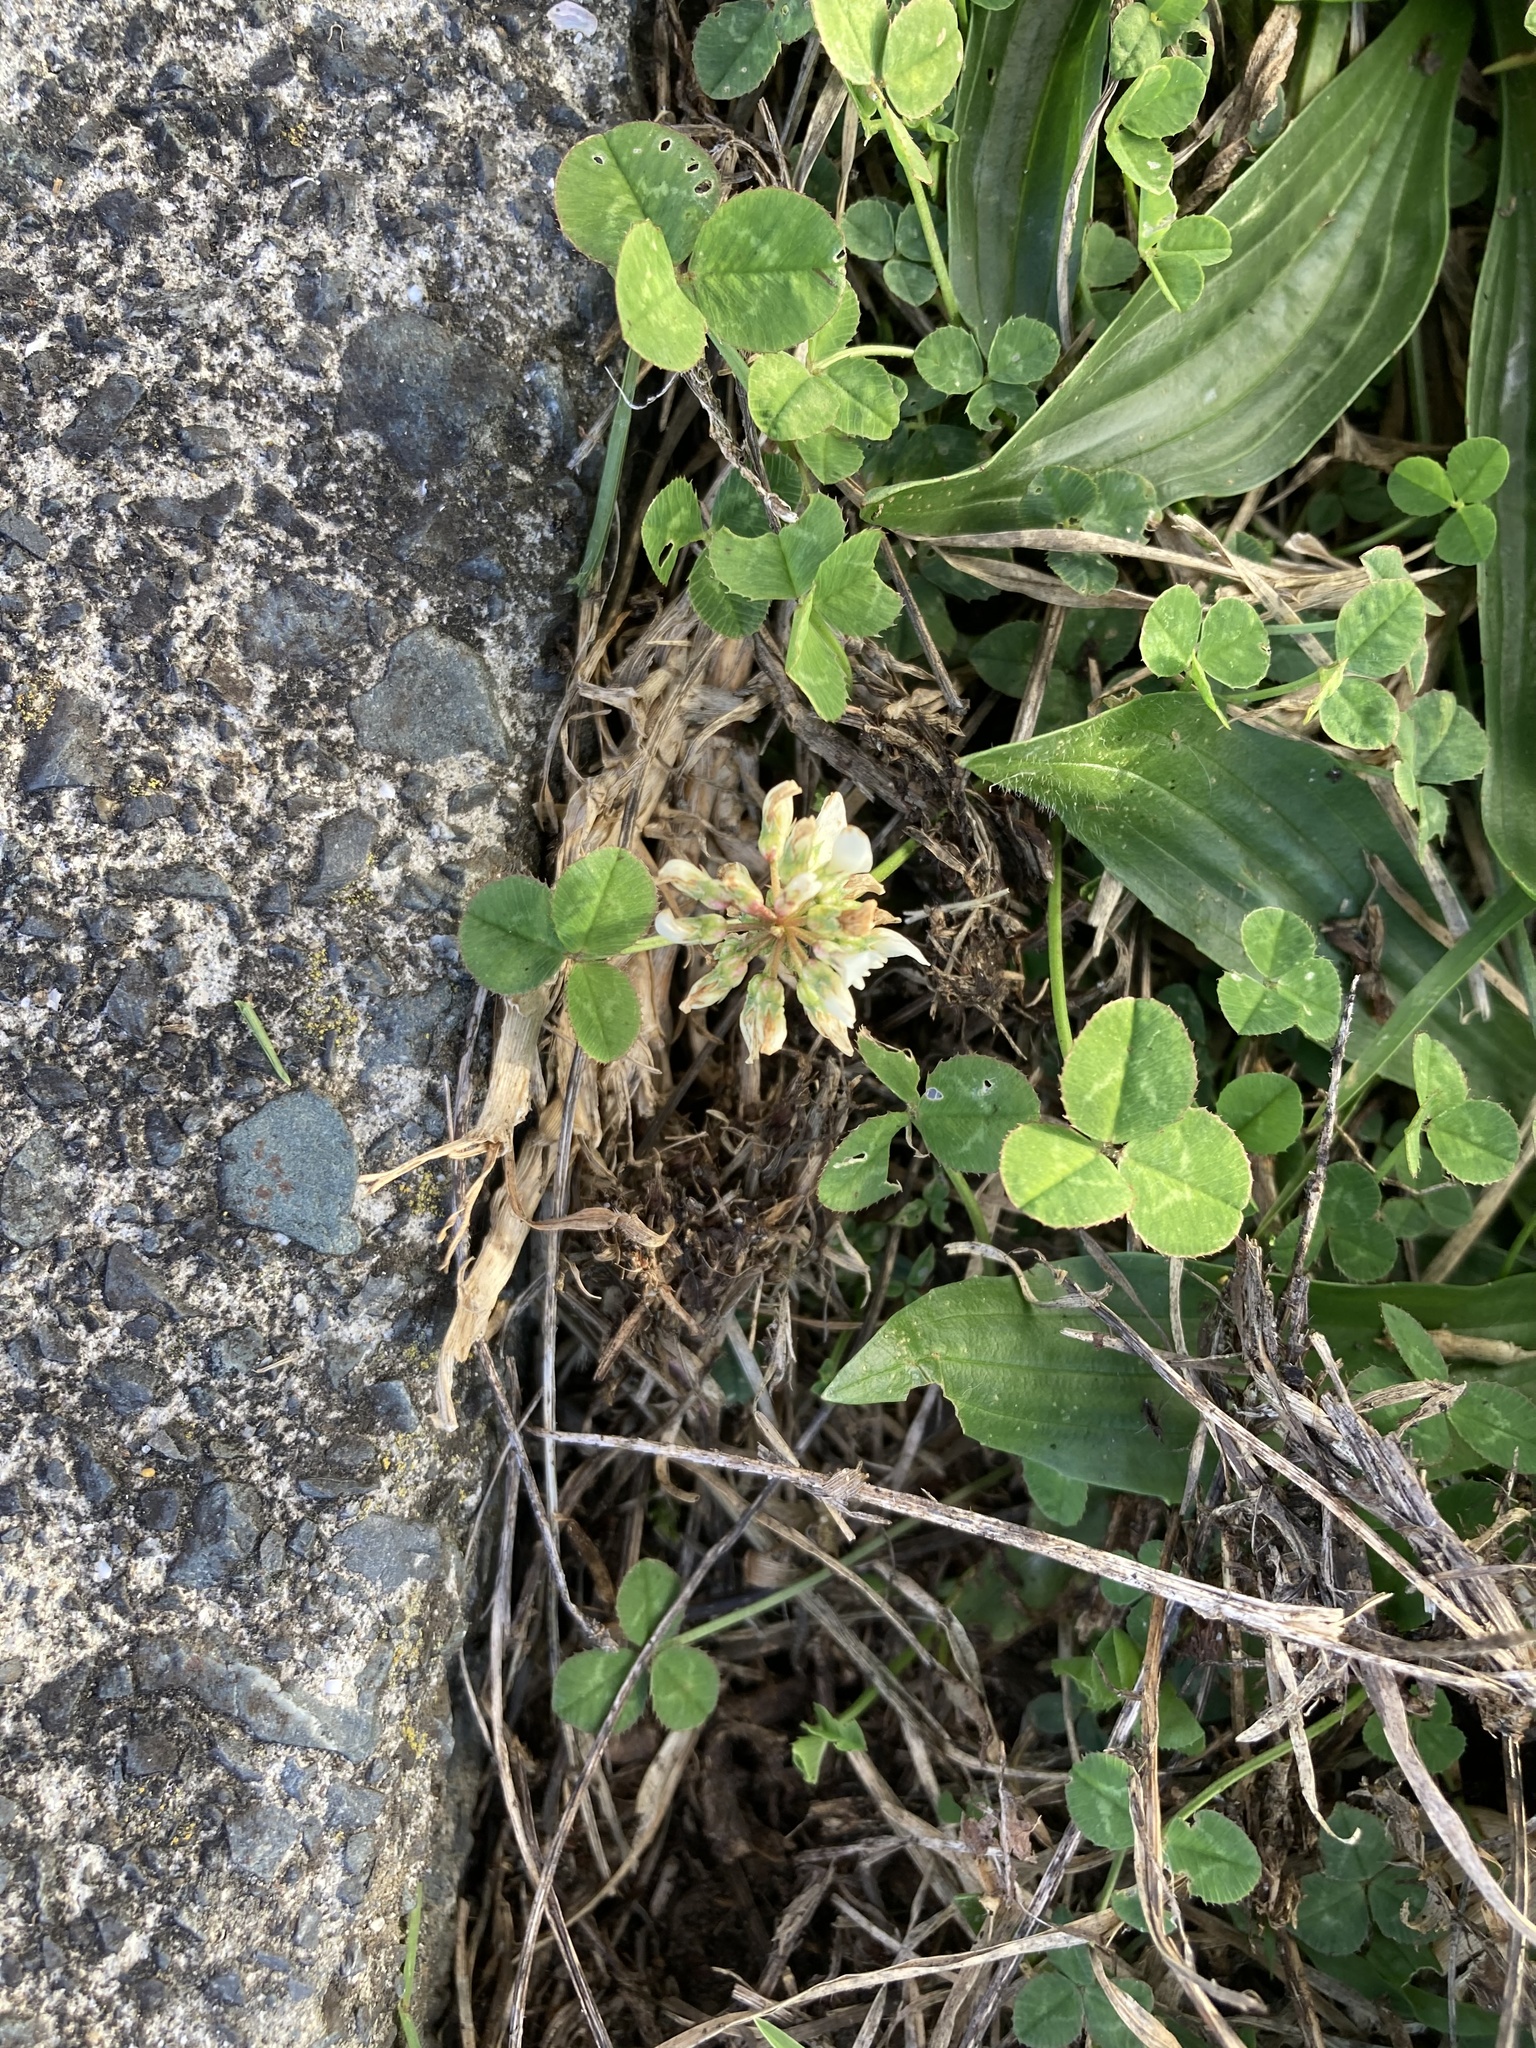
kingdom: Plantae
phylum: Tracheophyta
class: Magnoliopsida
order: Fabales
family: Fabaceae
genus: Trifolium
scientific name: Trifolium repens
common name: White clover
